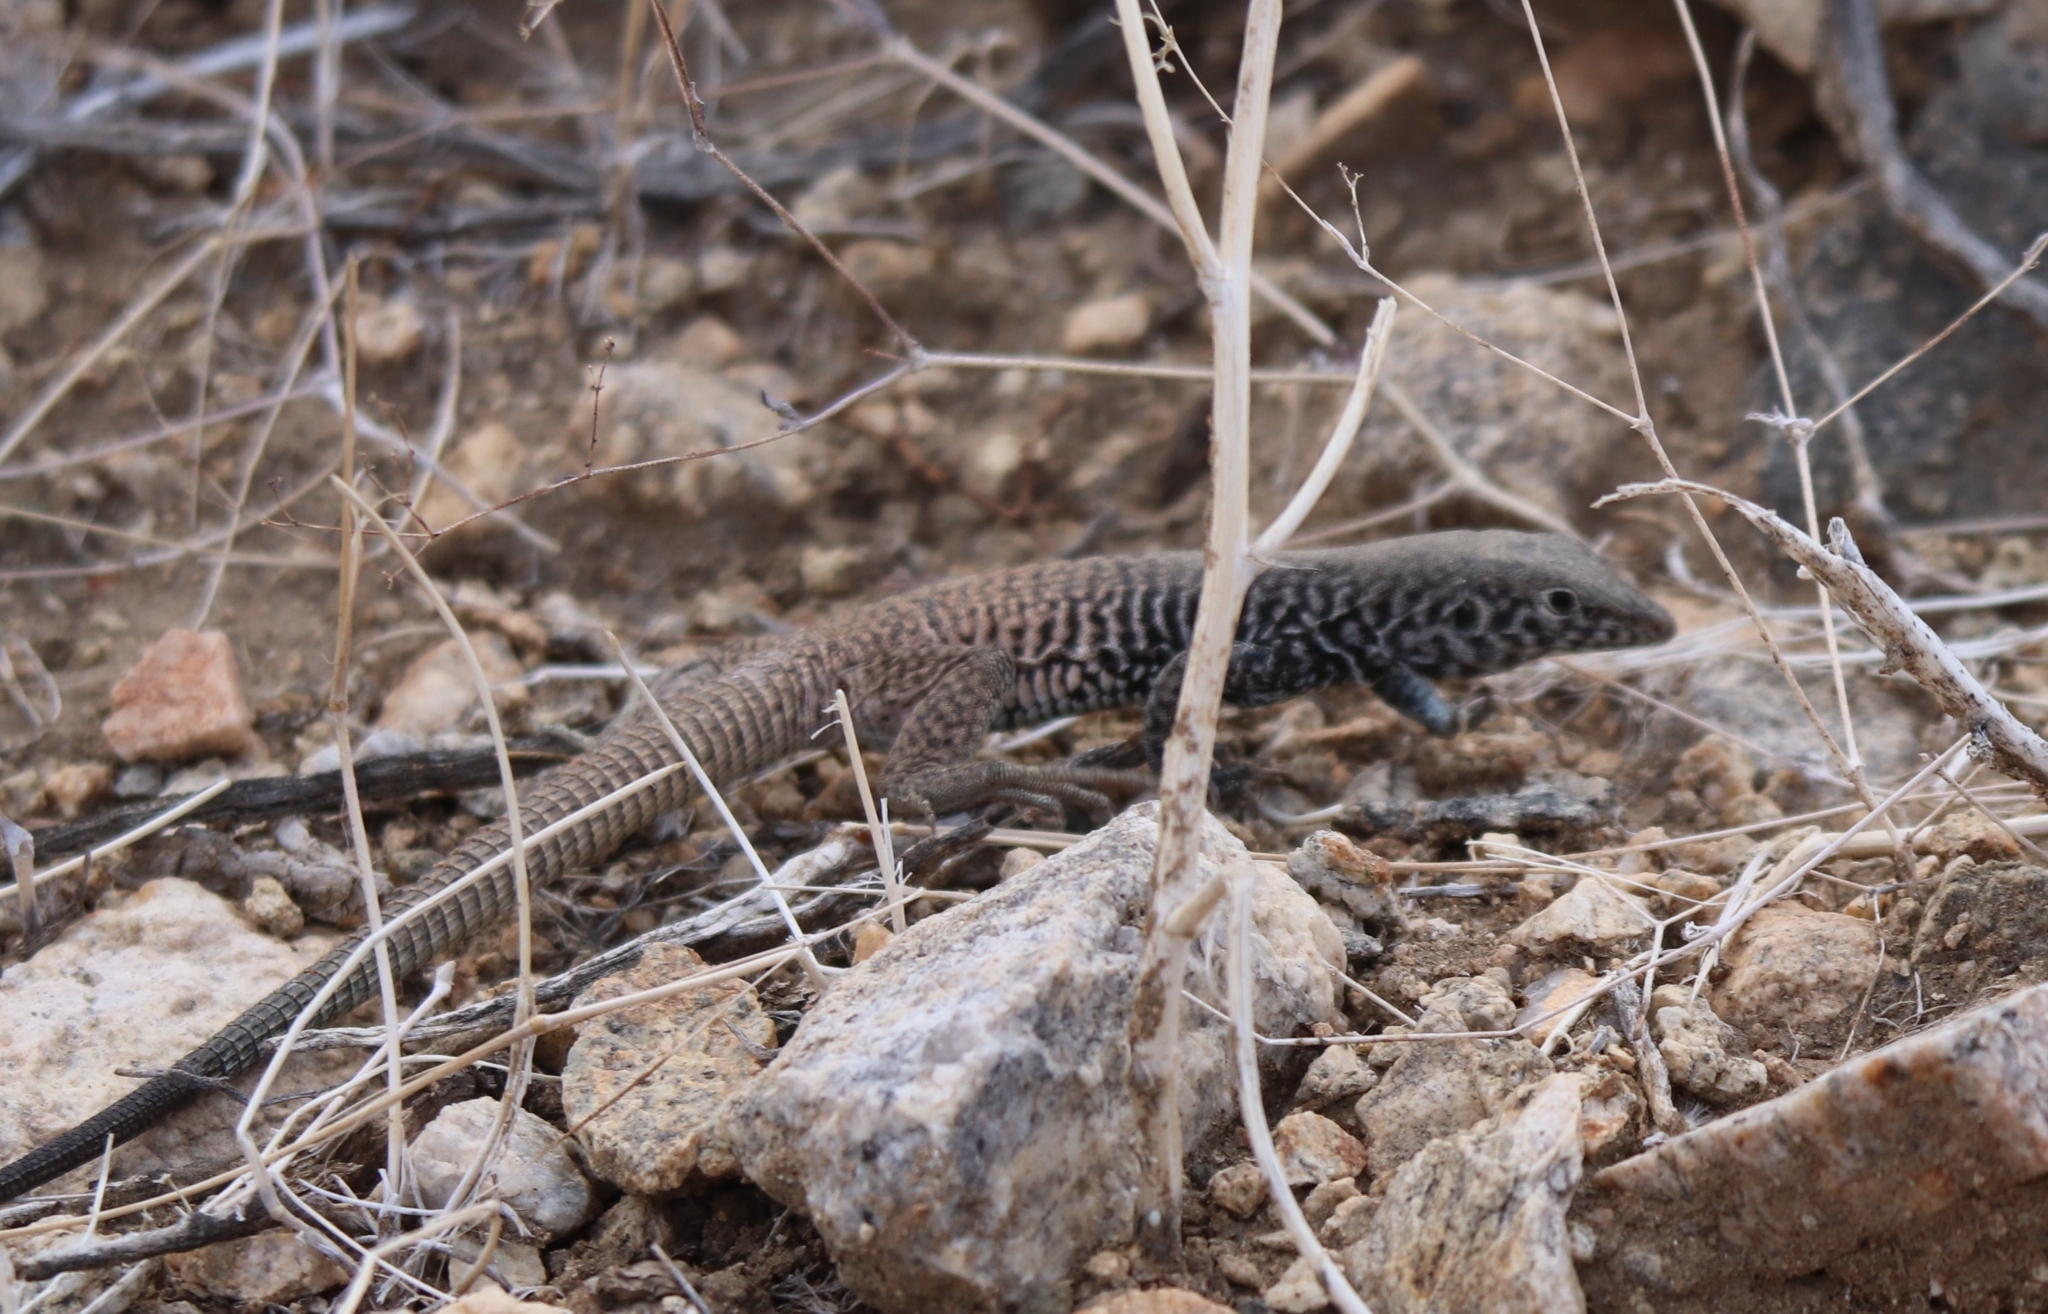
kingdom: Animalia
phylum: Chordata
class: Squamata
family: Teiidae
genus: Aspidoscelis
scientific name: Aspidoscelis tigris
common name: Tiger whiptail
